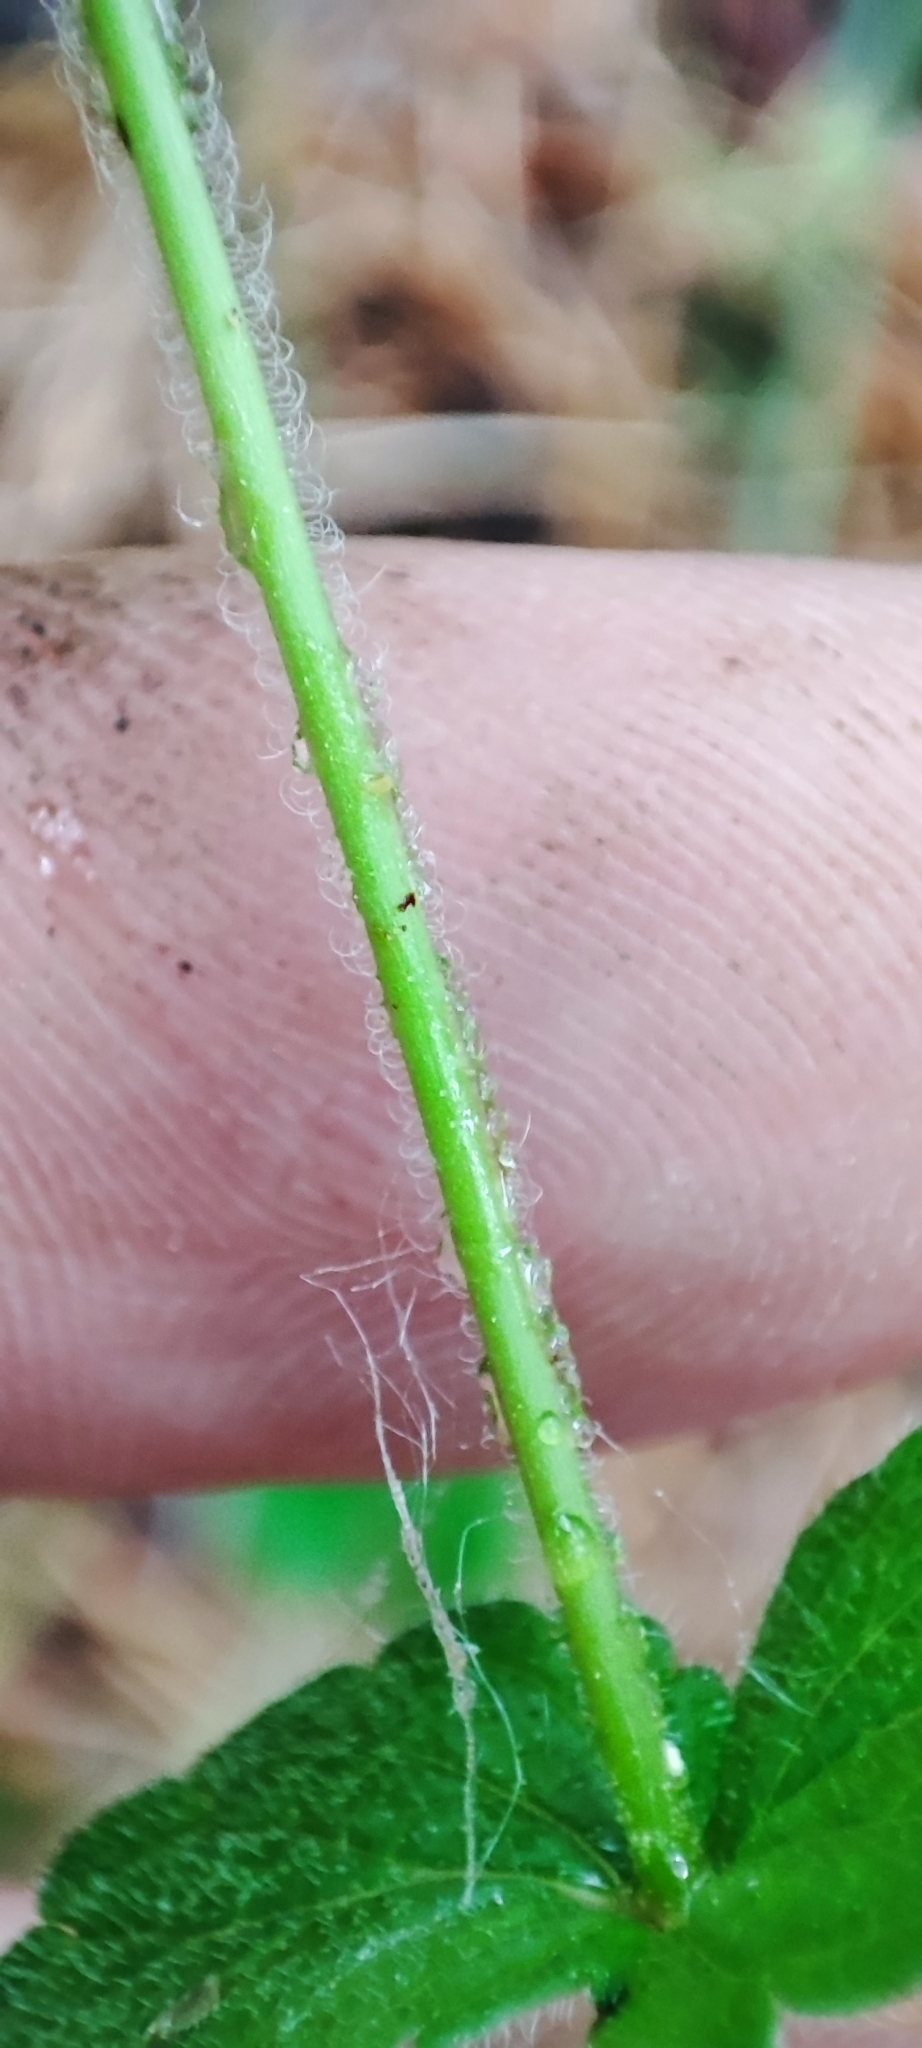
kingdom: Plantae
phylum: Tracheophyta
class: Magnoliopsida
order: Lamiales
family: Plantaginaceae
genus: Veronica
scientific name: Veronica chamaedrys
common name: Germander speedwell
